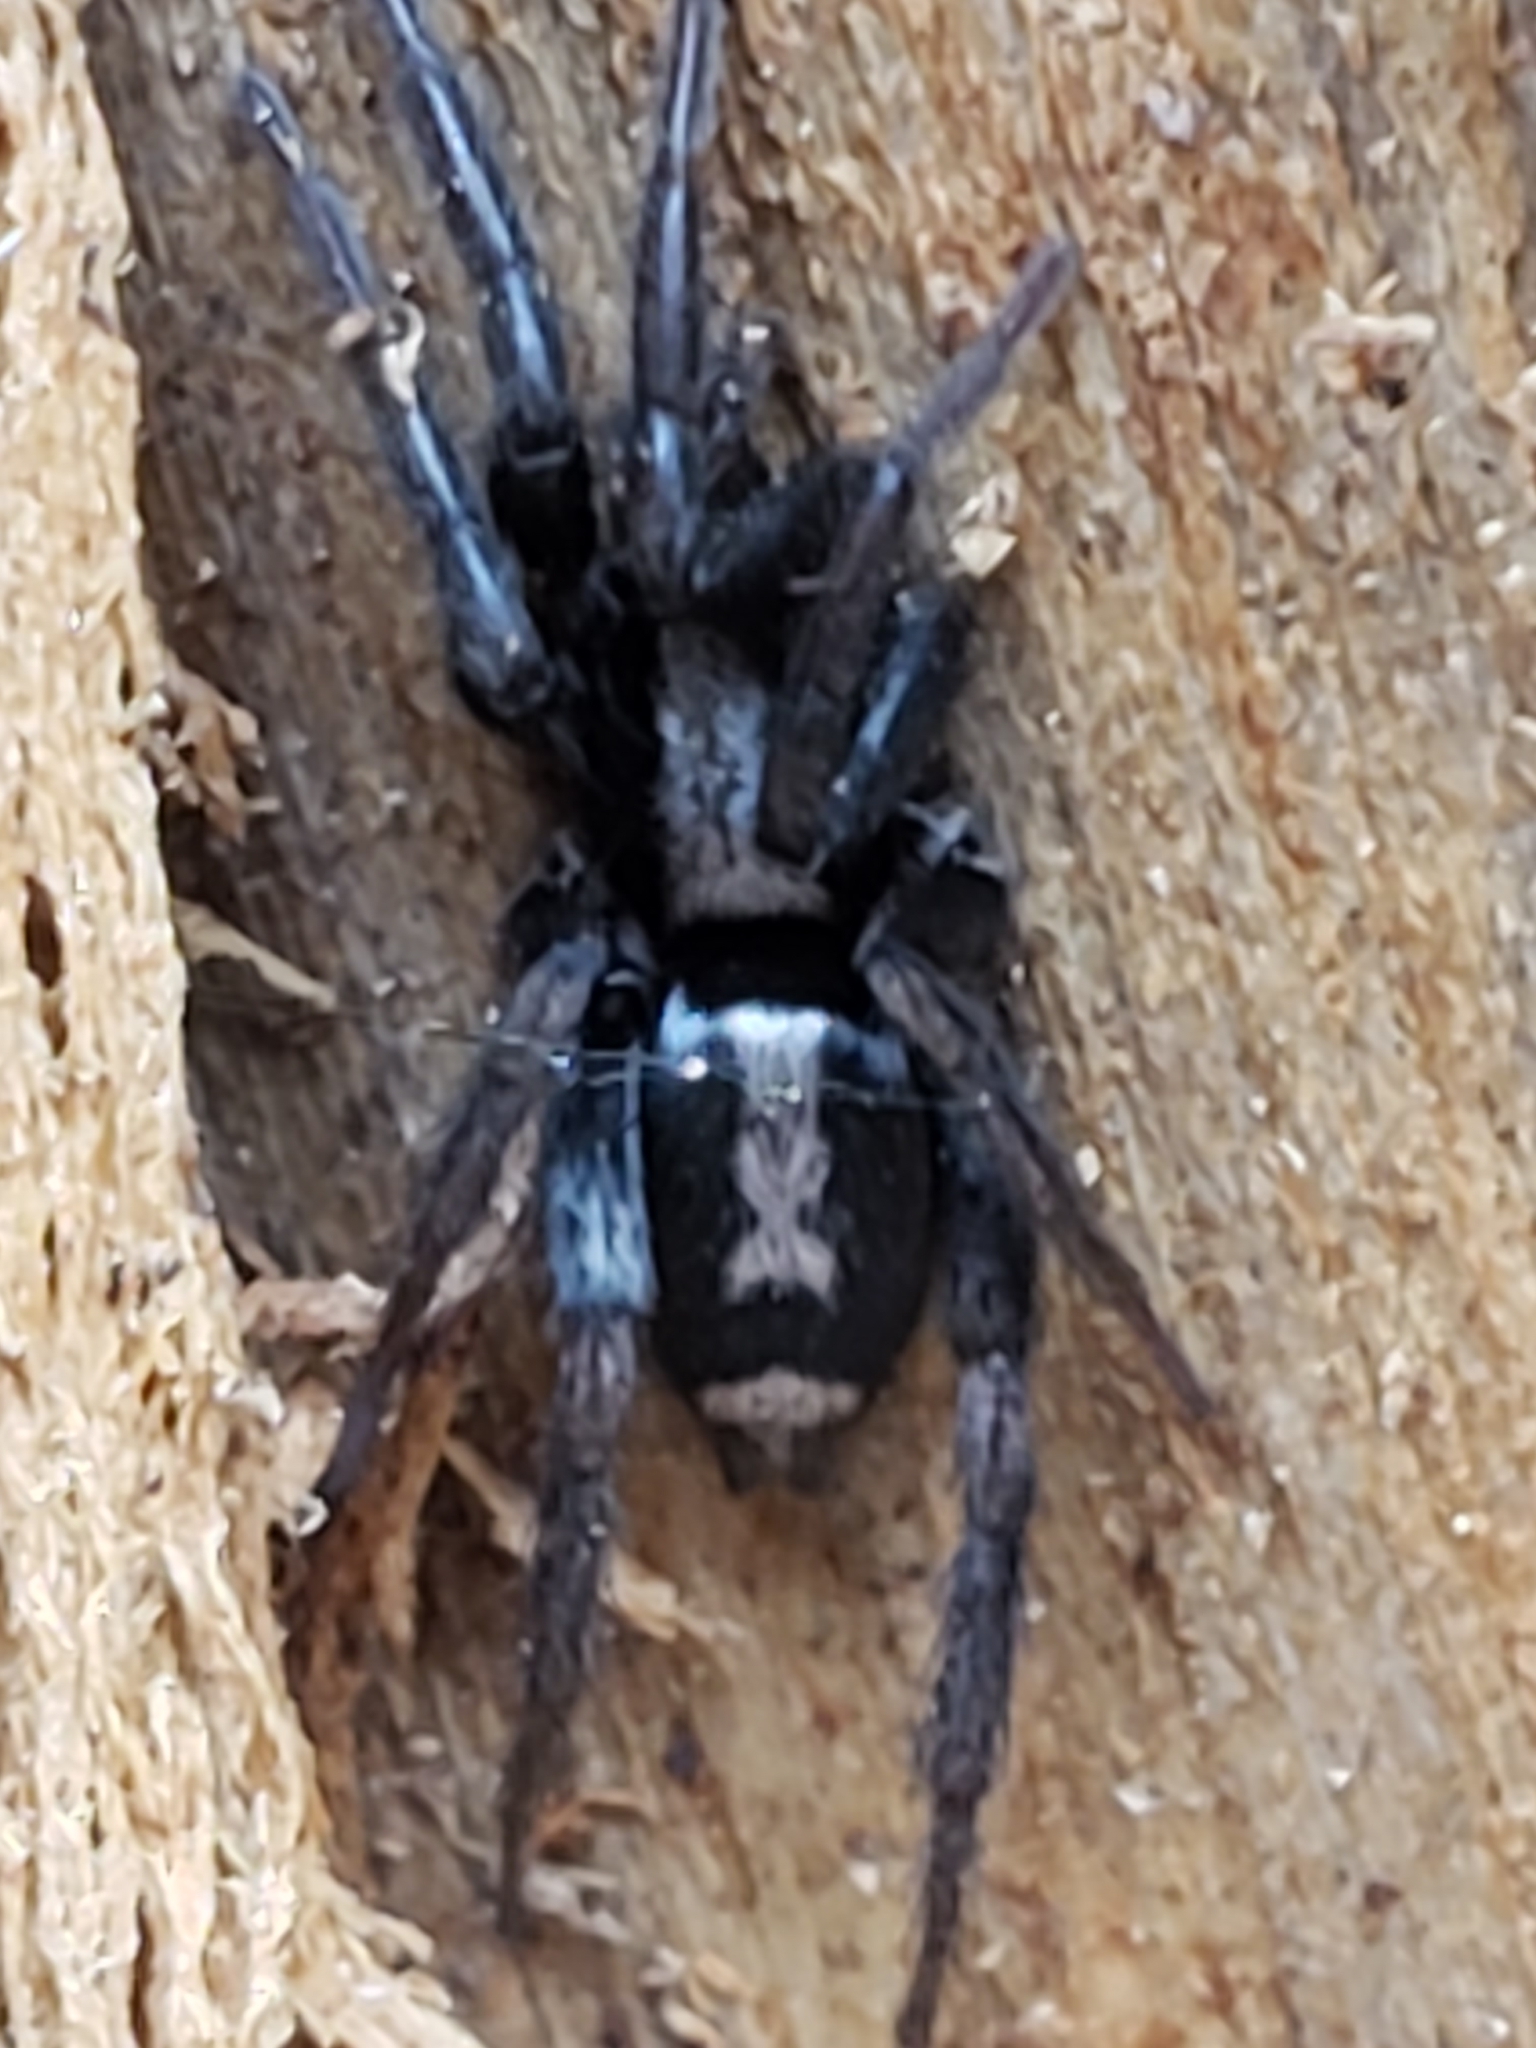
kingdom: Animalia
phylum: Arthropoda
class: Arachnida
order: Araneae
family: Gnaphosidae
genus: Herpyllus
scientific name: Herpyllus ecclesiasticus
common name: Eastern parson spider
